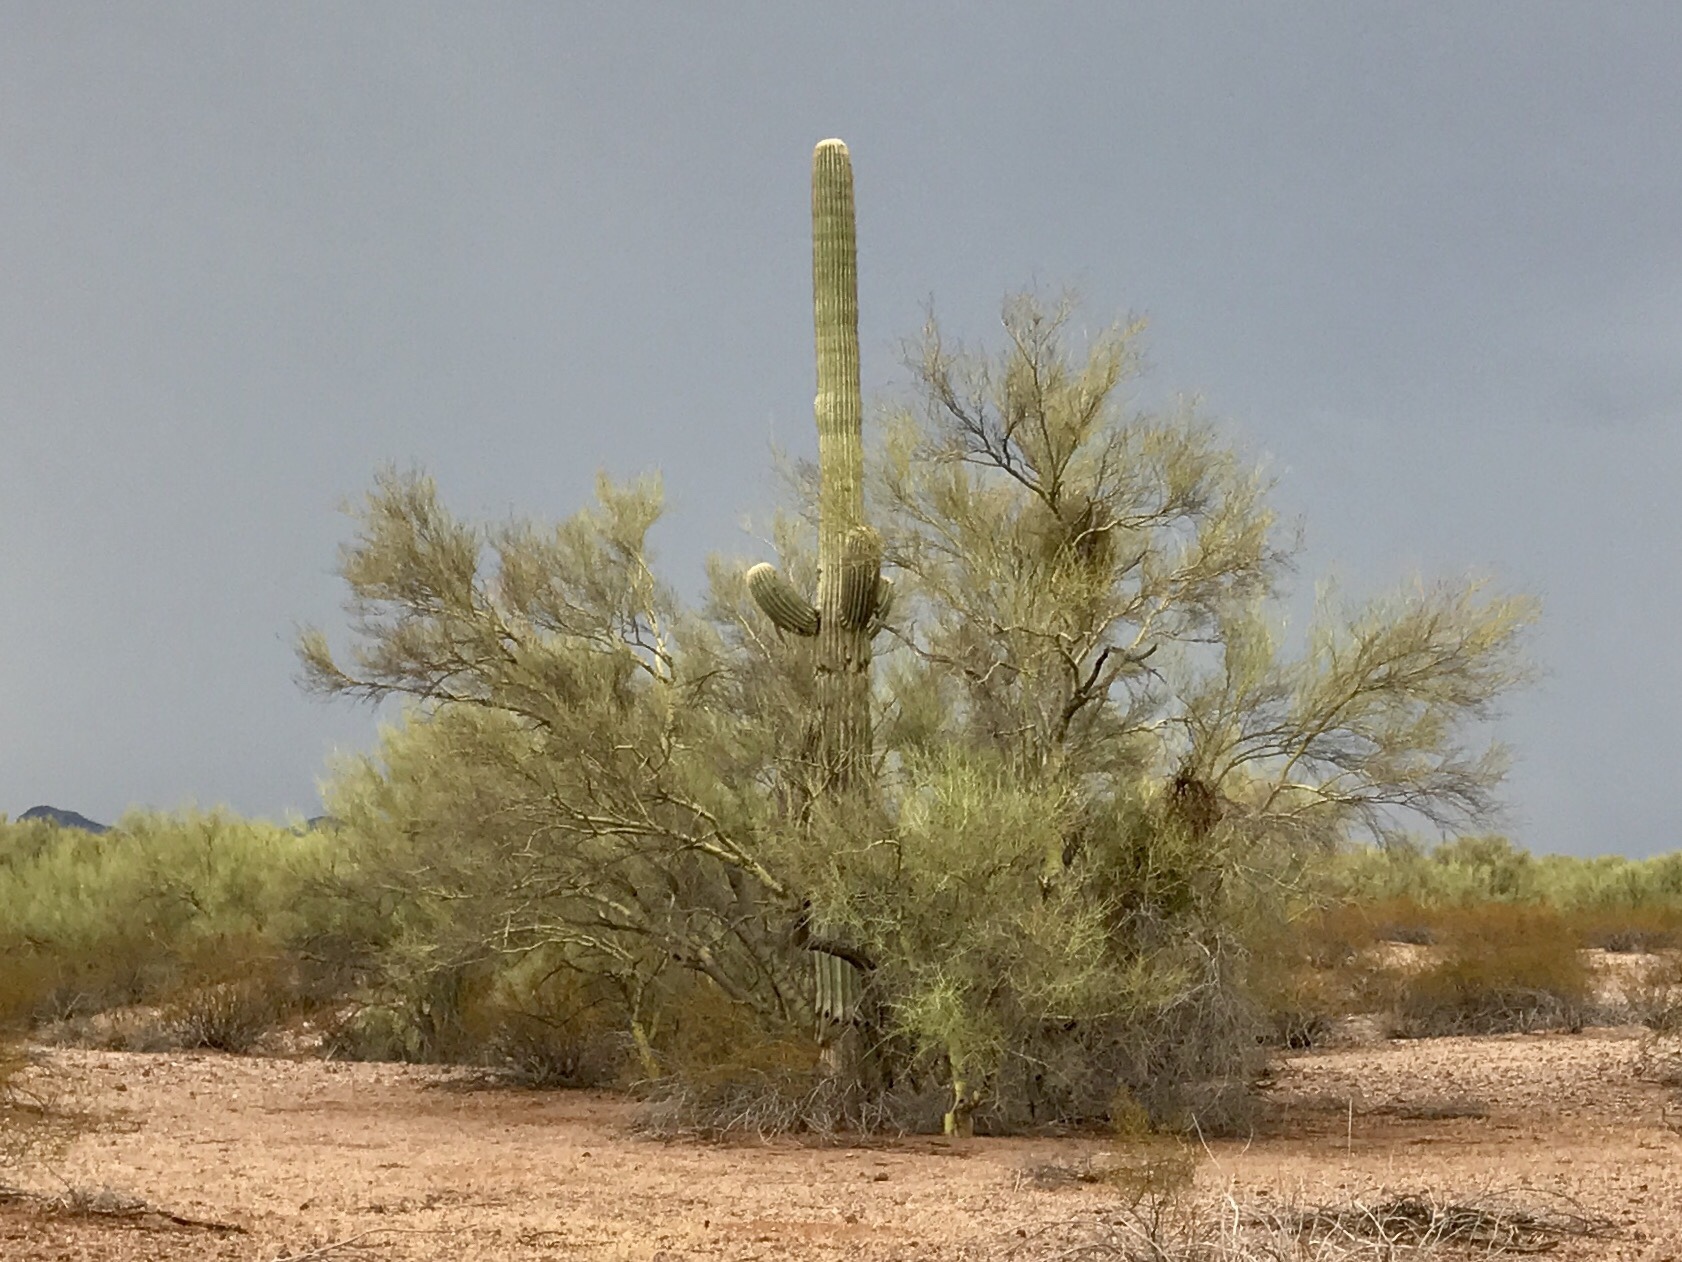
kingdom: Plantae
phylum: Tracheophyta
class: Magnoliopsida
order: Fabales
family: Fabaceae
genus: Parkinsonia
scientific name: Parkinsonia florida
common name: Blue paloverde
